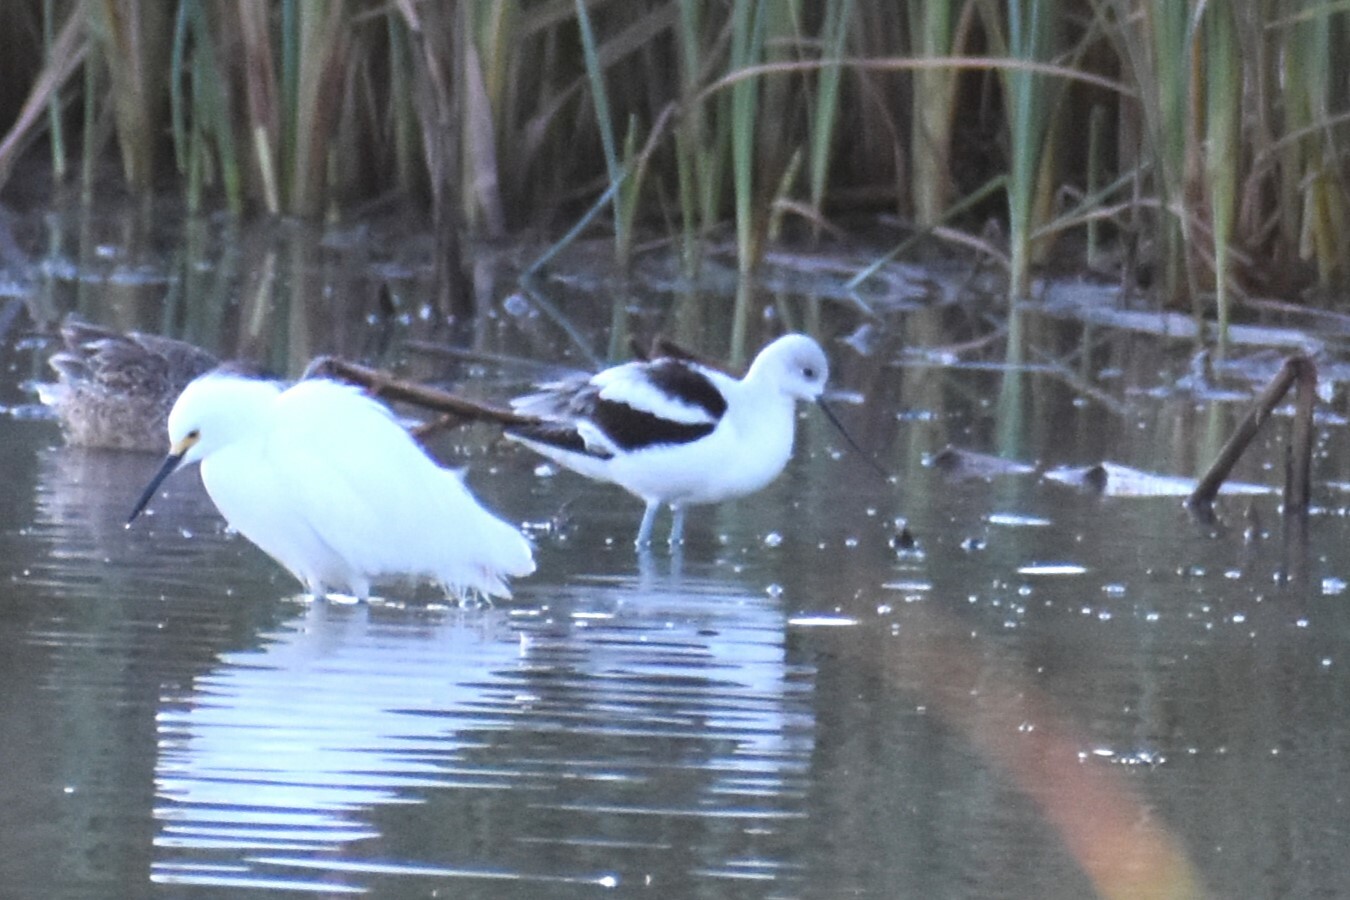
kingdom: Animalia
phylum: Chordata
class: Aves
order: Charadriiformes
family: Recurvirostridae
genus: Recurvirostra
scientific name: Recurvirostra americana
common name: American avocet
